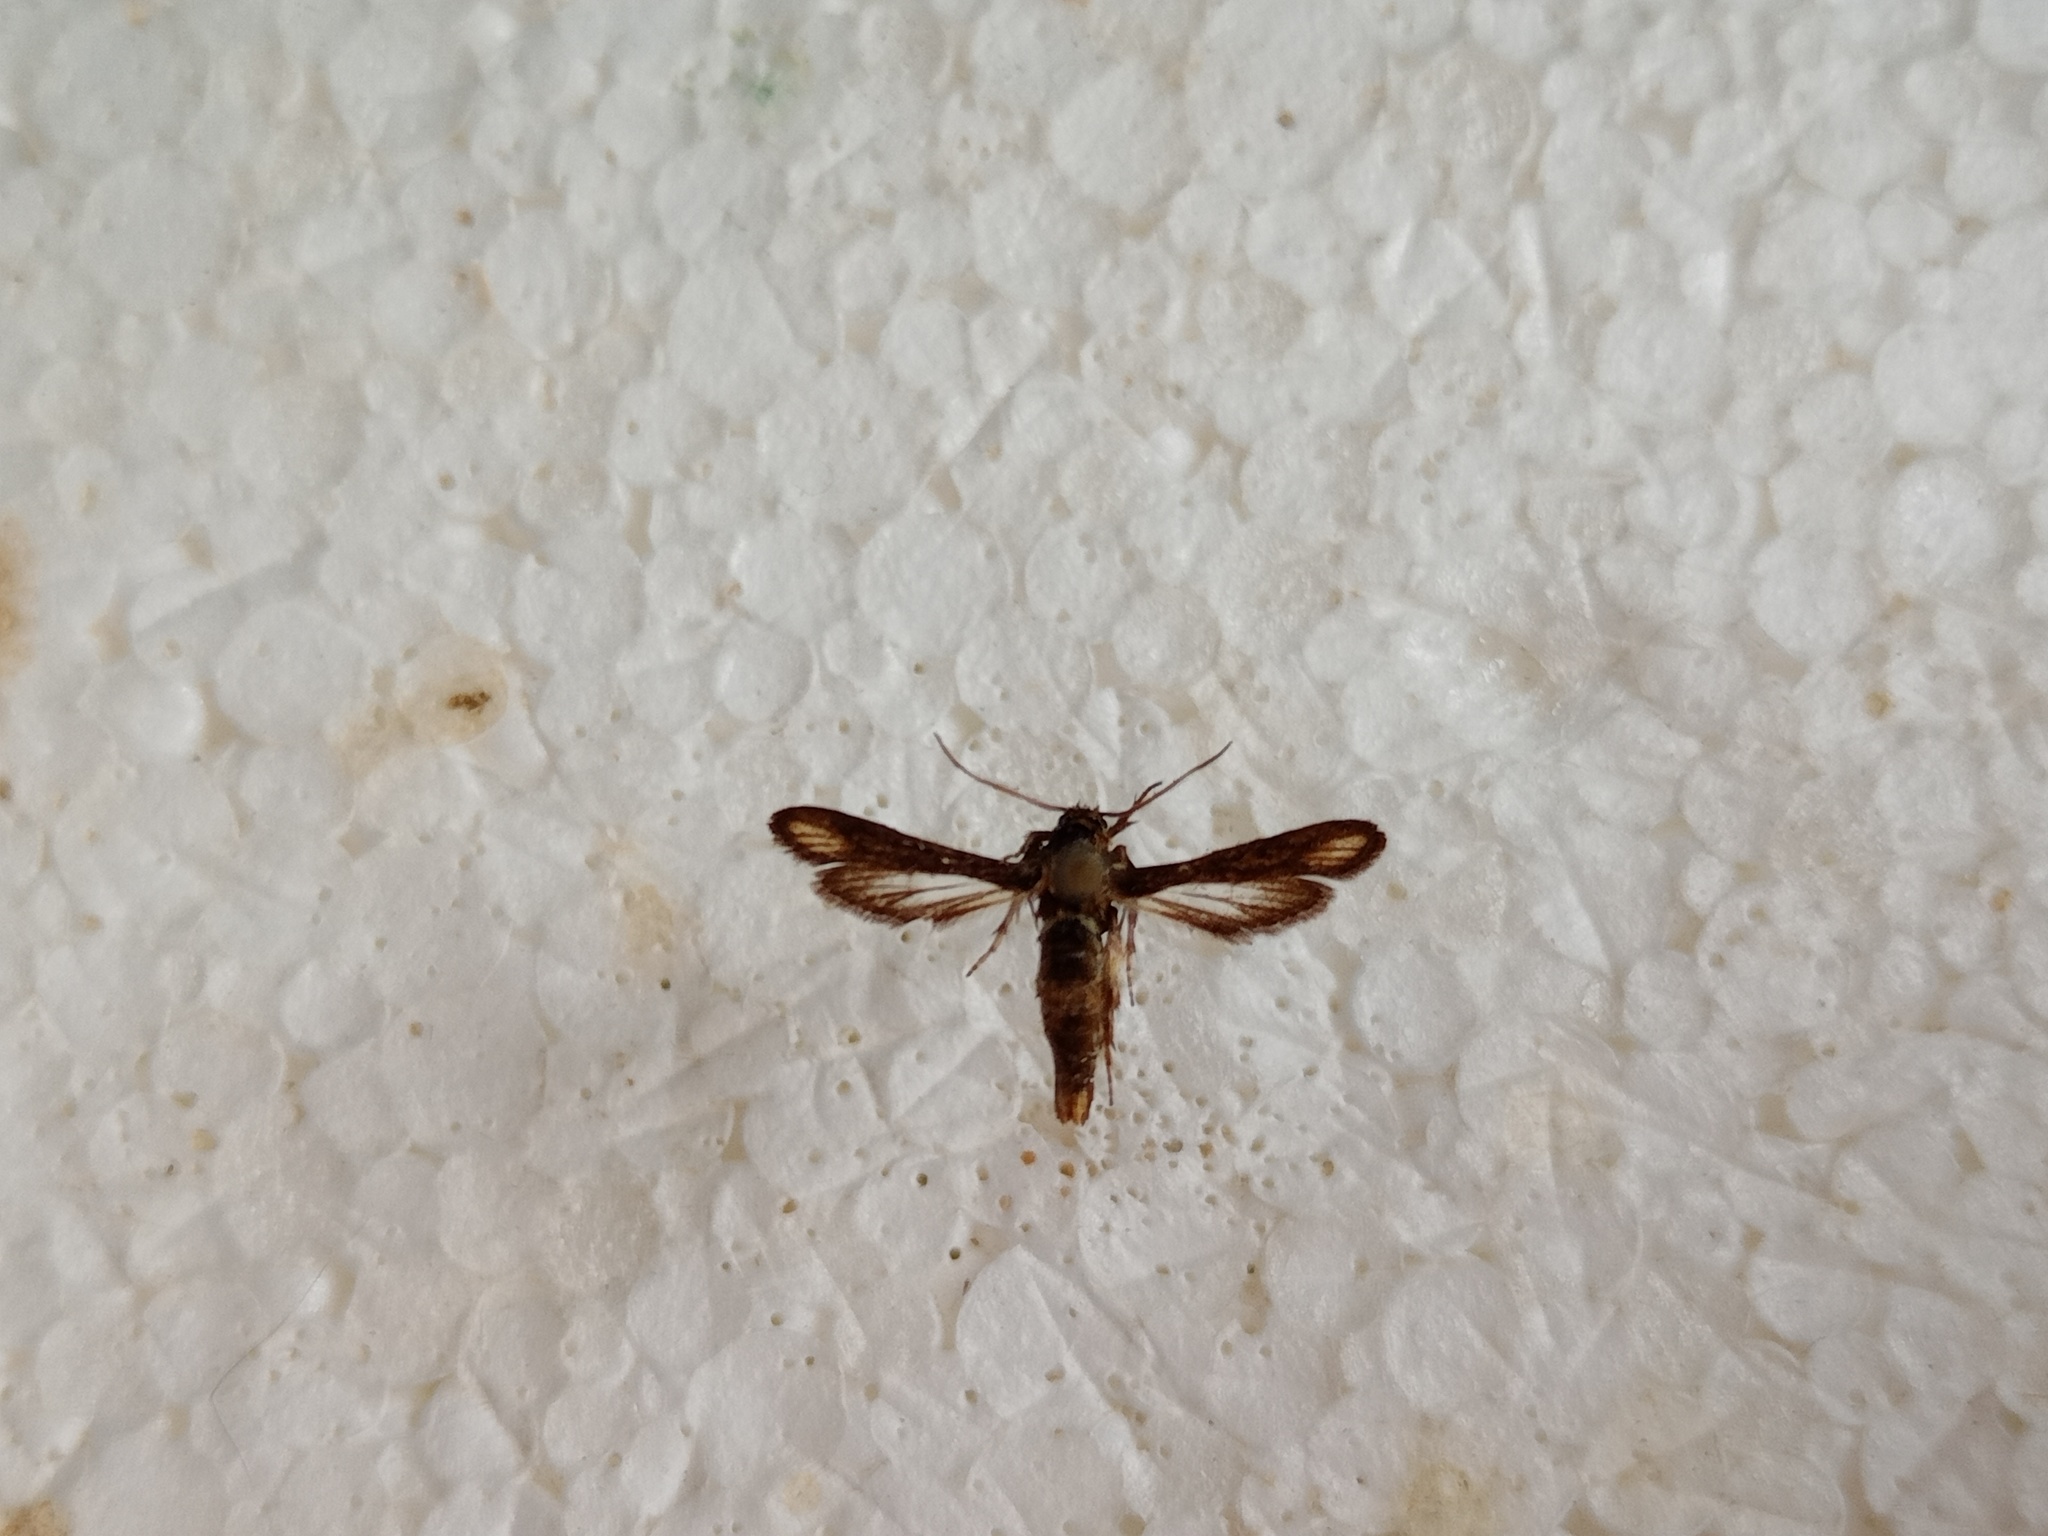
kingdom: Animalia
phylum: Arthropoda
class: Insecta
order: Lepidoptera
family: Sesiidae
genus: Microsphecia
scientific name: Microsphecia brosiformis
